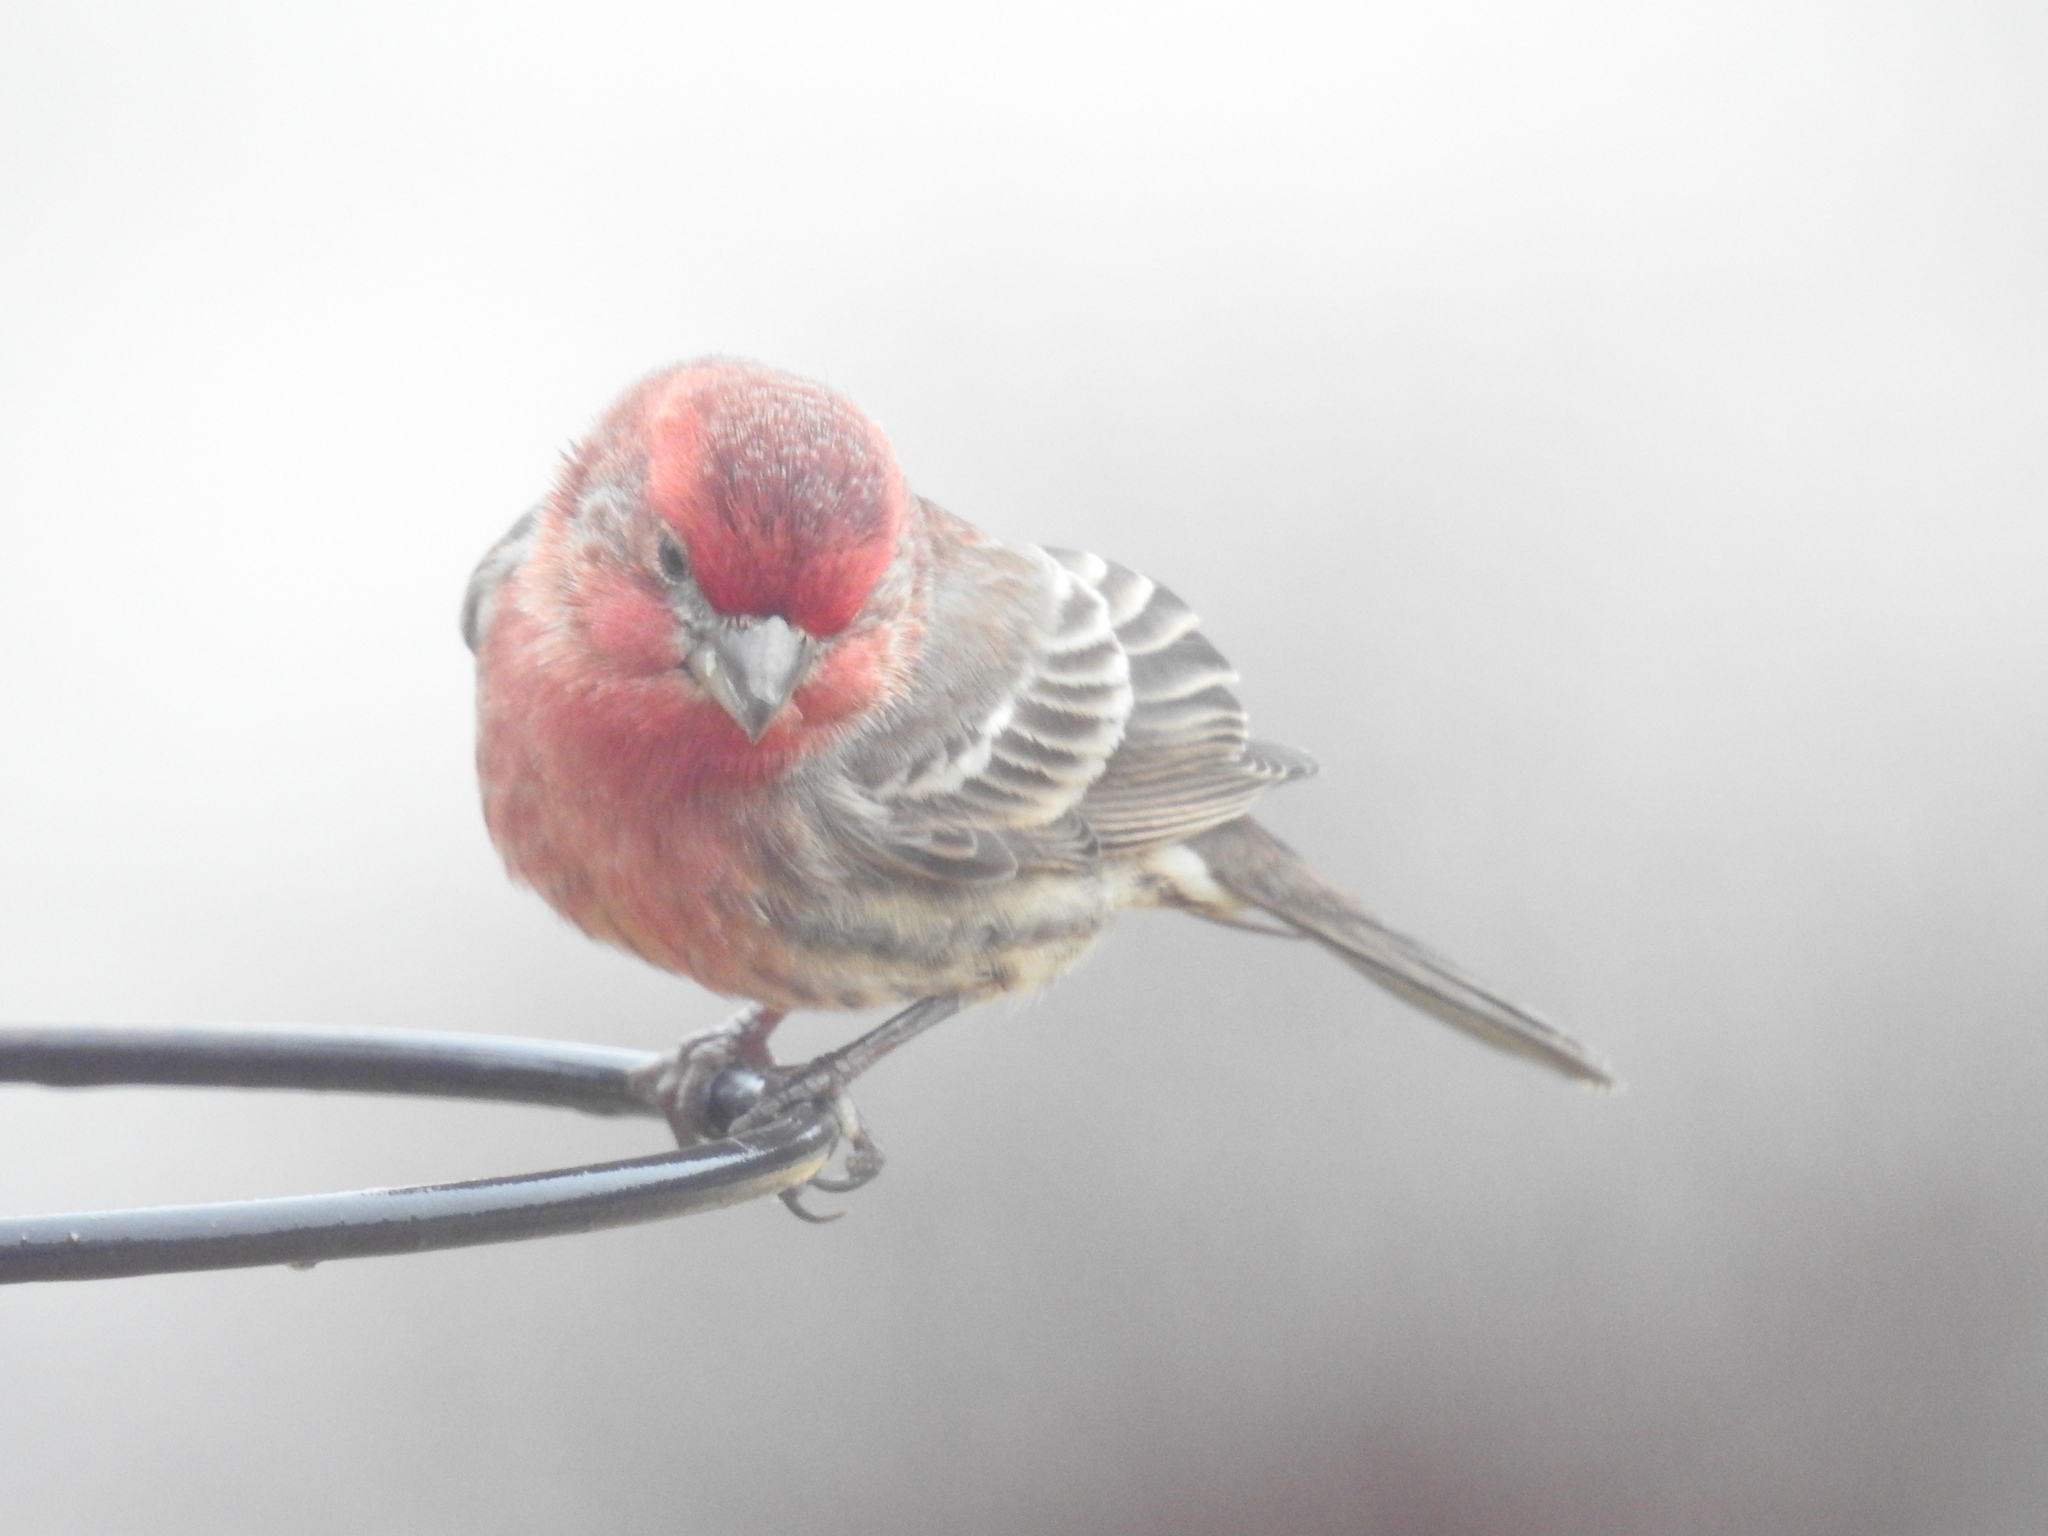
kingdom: Animalia
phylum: Chordata
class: Aves
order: Passeriformes
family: Fringillidae
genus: Haemorhous
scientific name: Haemorhous mexicanus
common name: House finch
